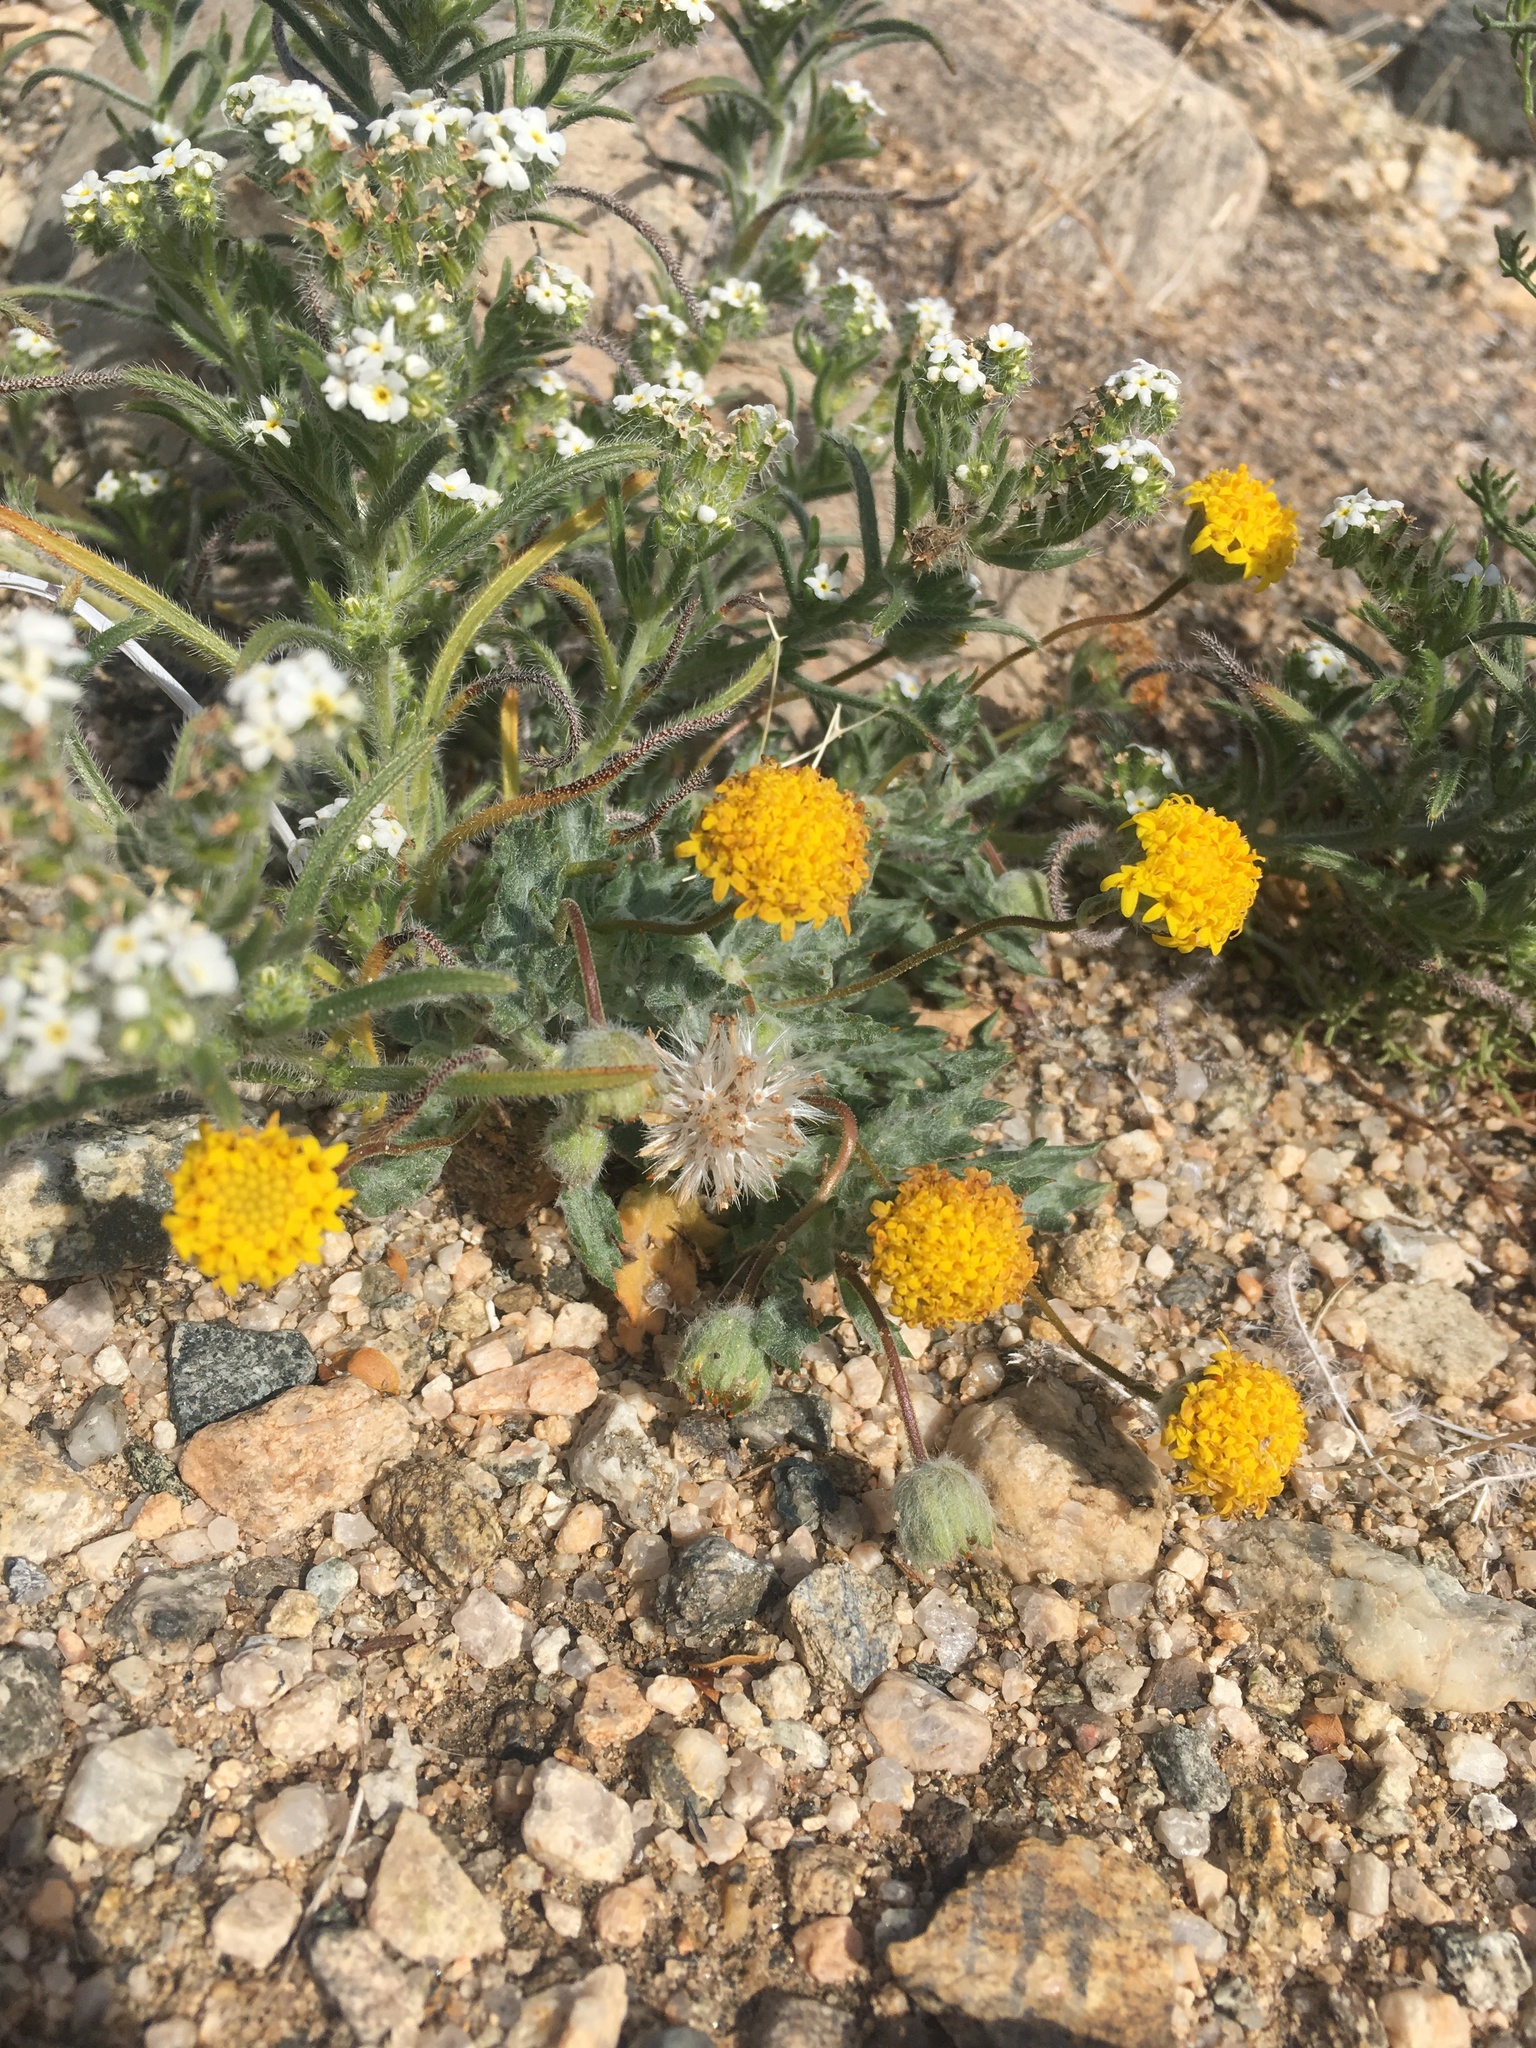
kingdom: Plantae
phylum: Tracheophyta
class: Magnoliopsida
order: Asterales
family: Asteraceae
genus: Trichoptilium
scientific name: Trichoptilium incisum
